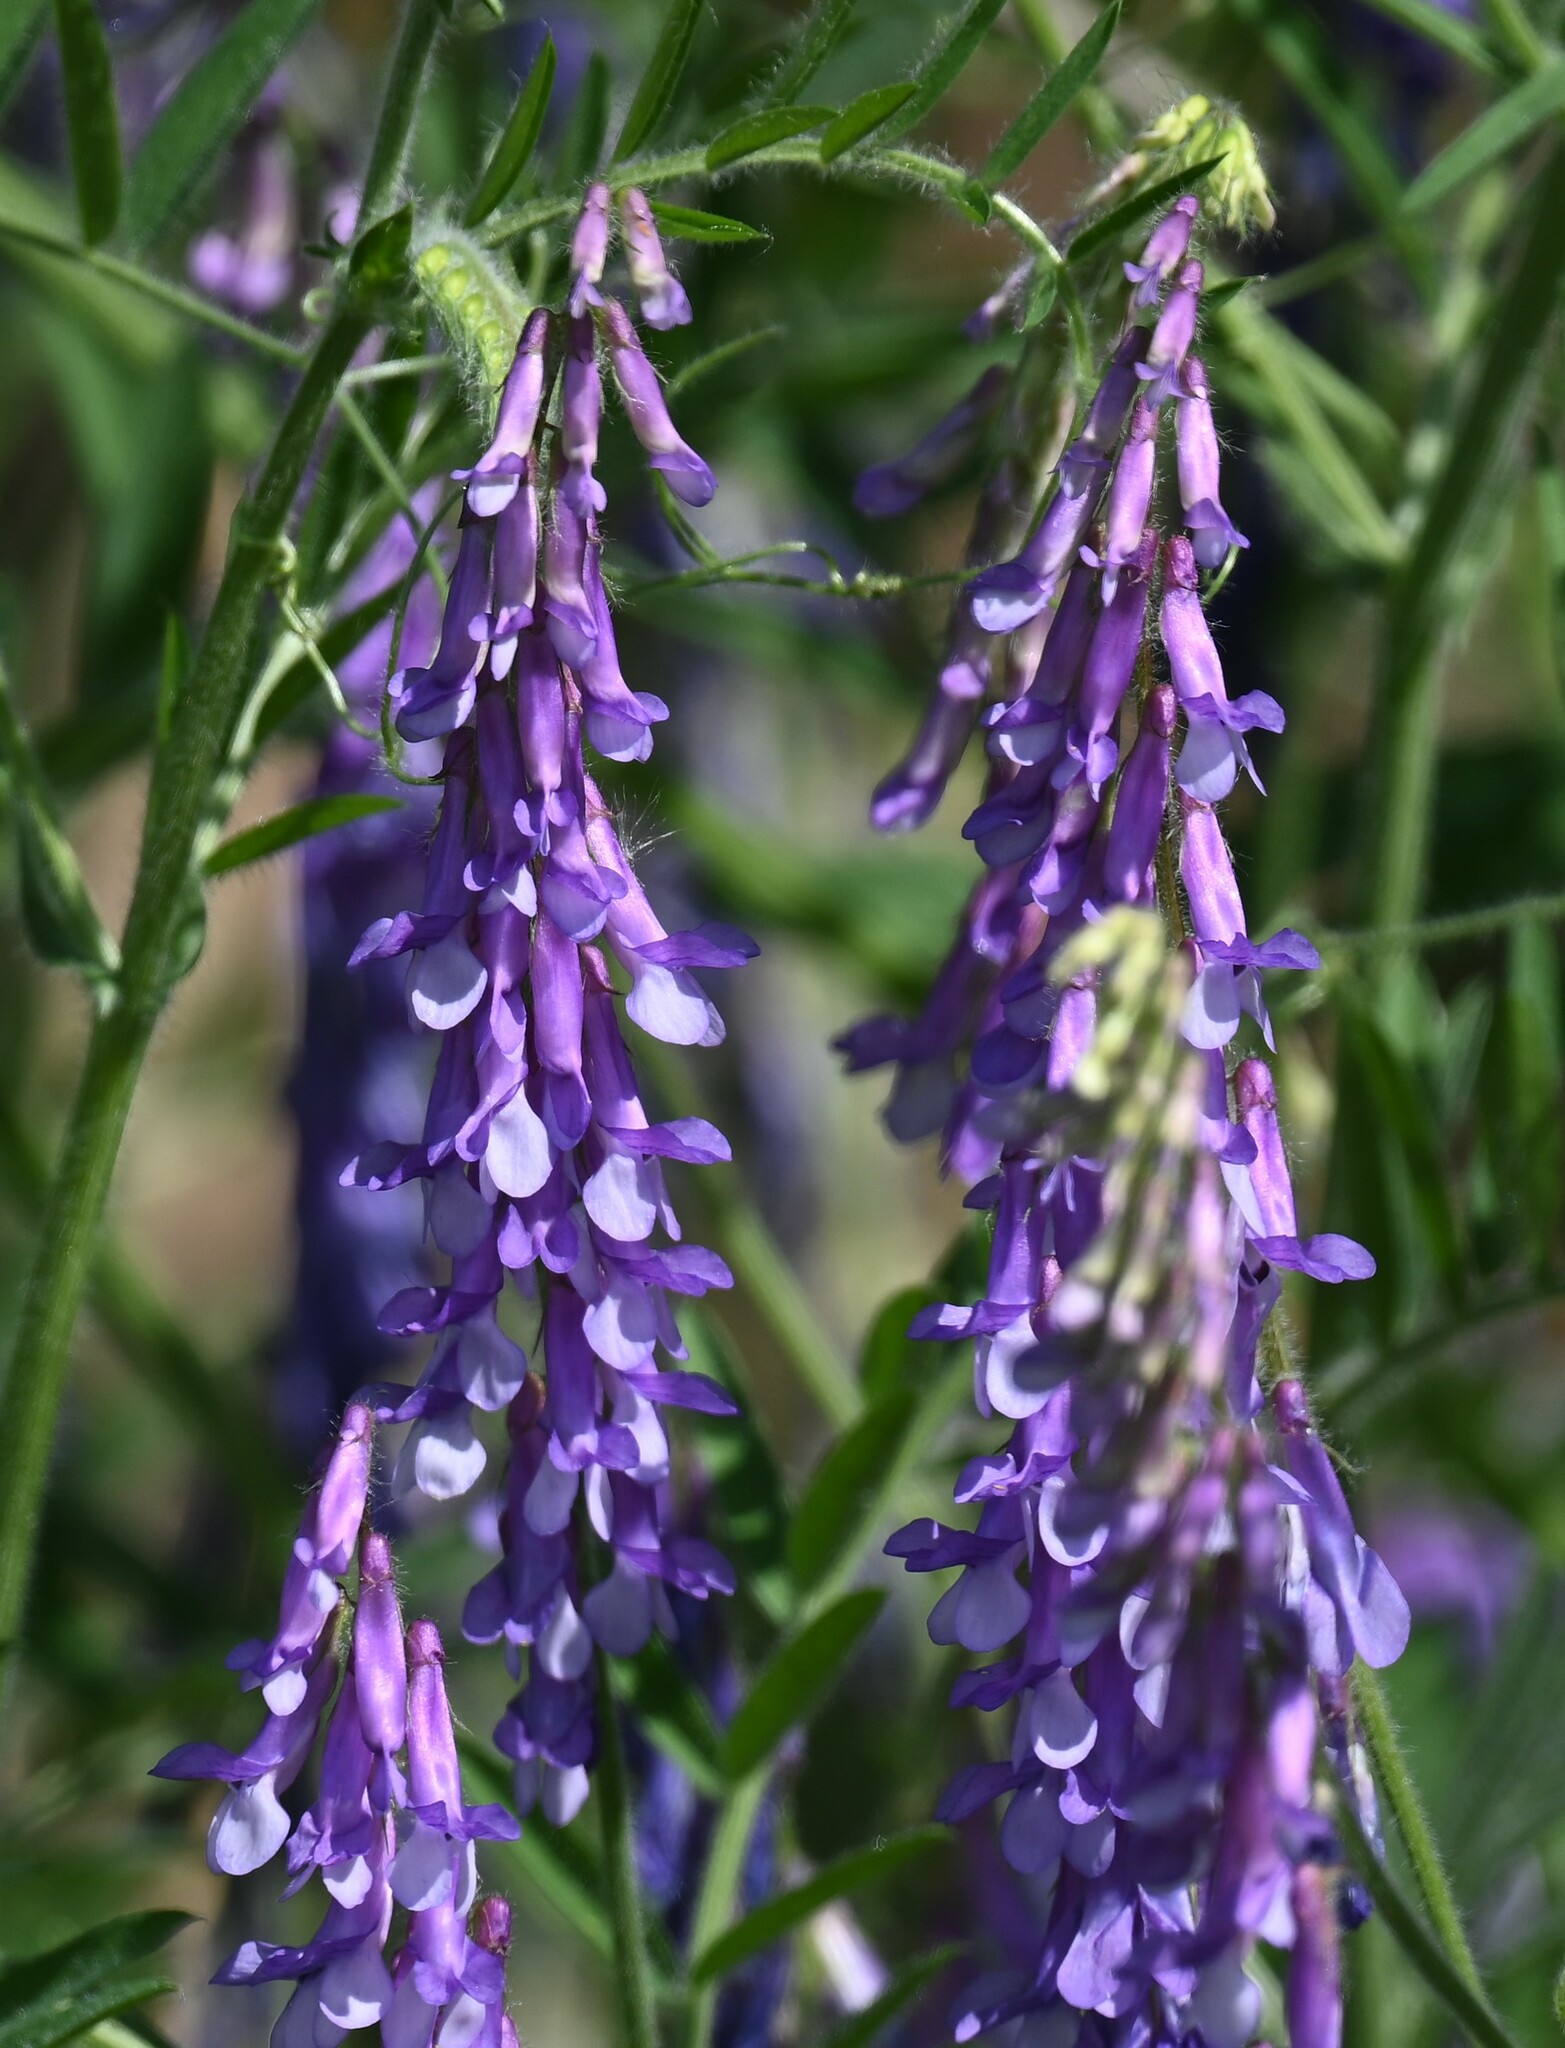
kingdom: Plantae
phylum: Tracheophyta
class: Magnoliopsida
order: Fabales
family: Fabaceae
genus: Vicia
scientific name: Vicia villosa
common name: Fodder vetch
